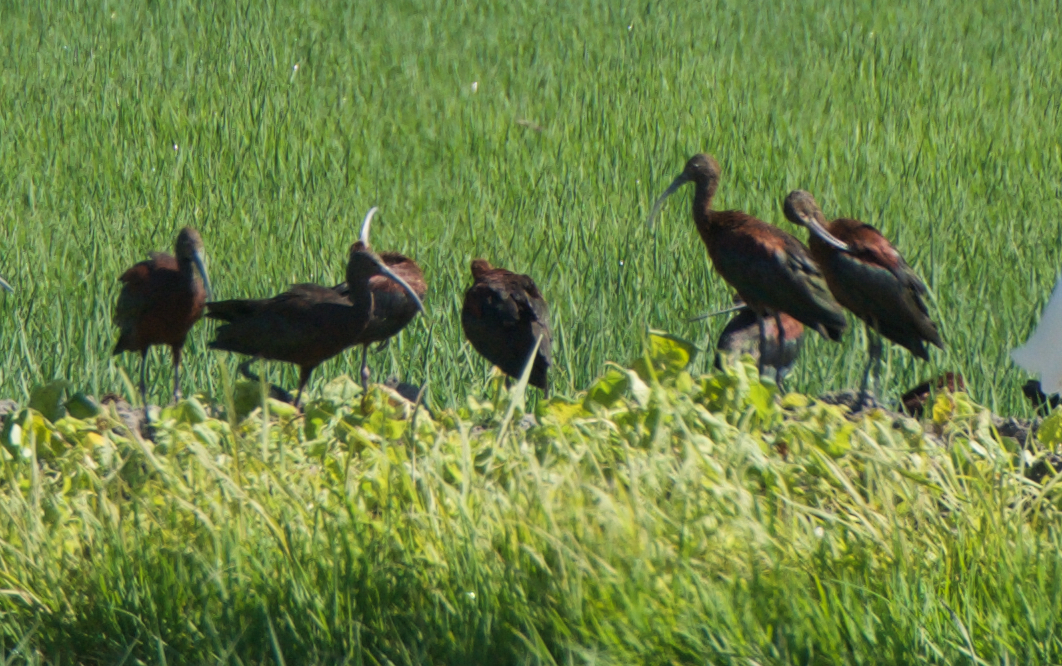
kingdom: Animalia
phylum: Chordata
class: Aves
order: Pelecaniformes
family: Threskiornithidae
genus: Plegadis
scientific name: Plegadis chihi
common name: White-faced ibis
